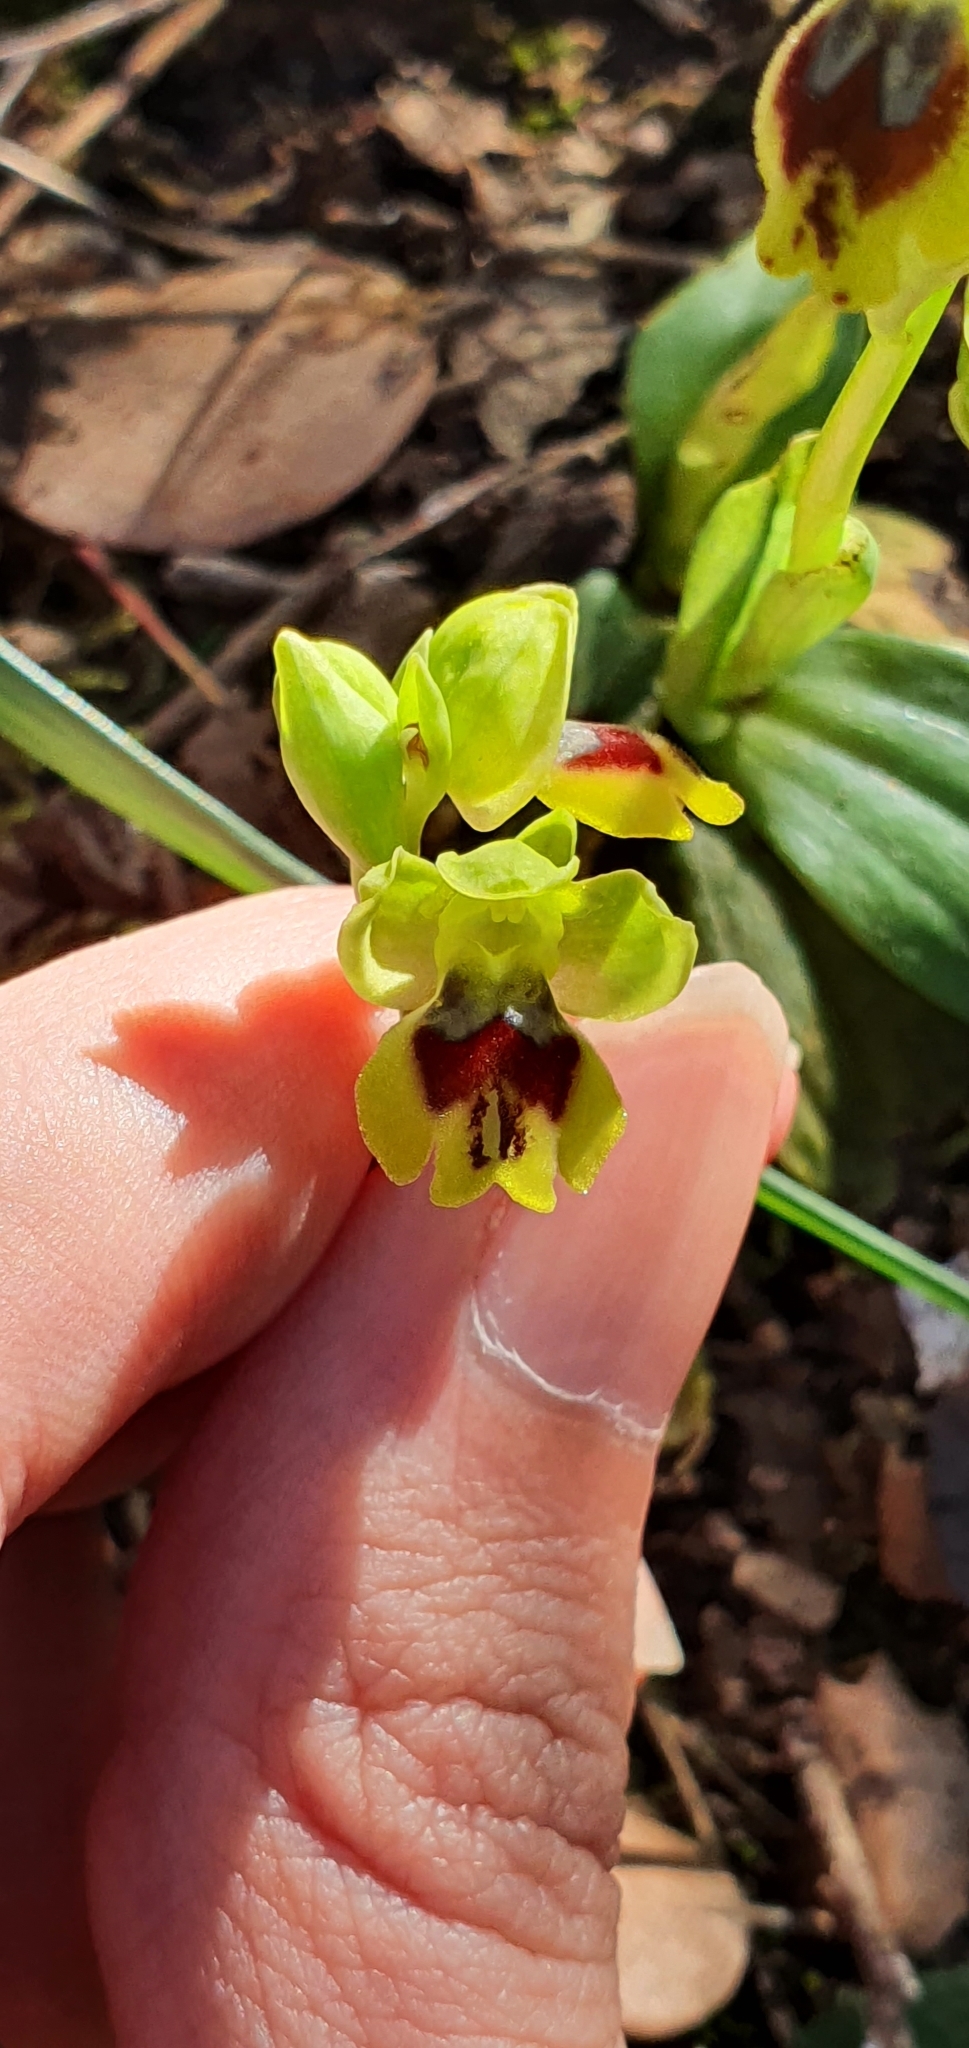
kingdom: Plantae
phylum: Tracheophyta
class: Liliopsida
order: Asparagales
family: Orchidaceae
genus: Ophrys
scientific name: Ophrys battandieri
